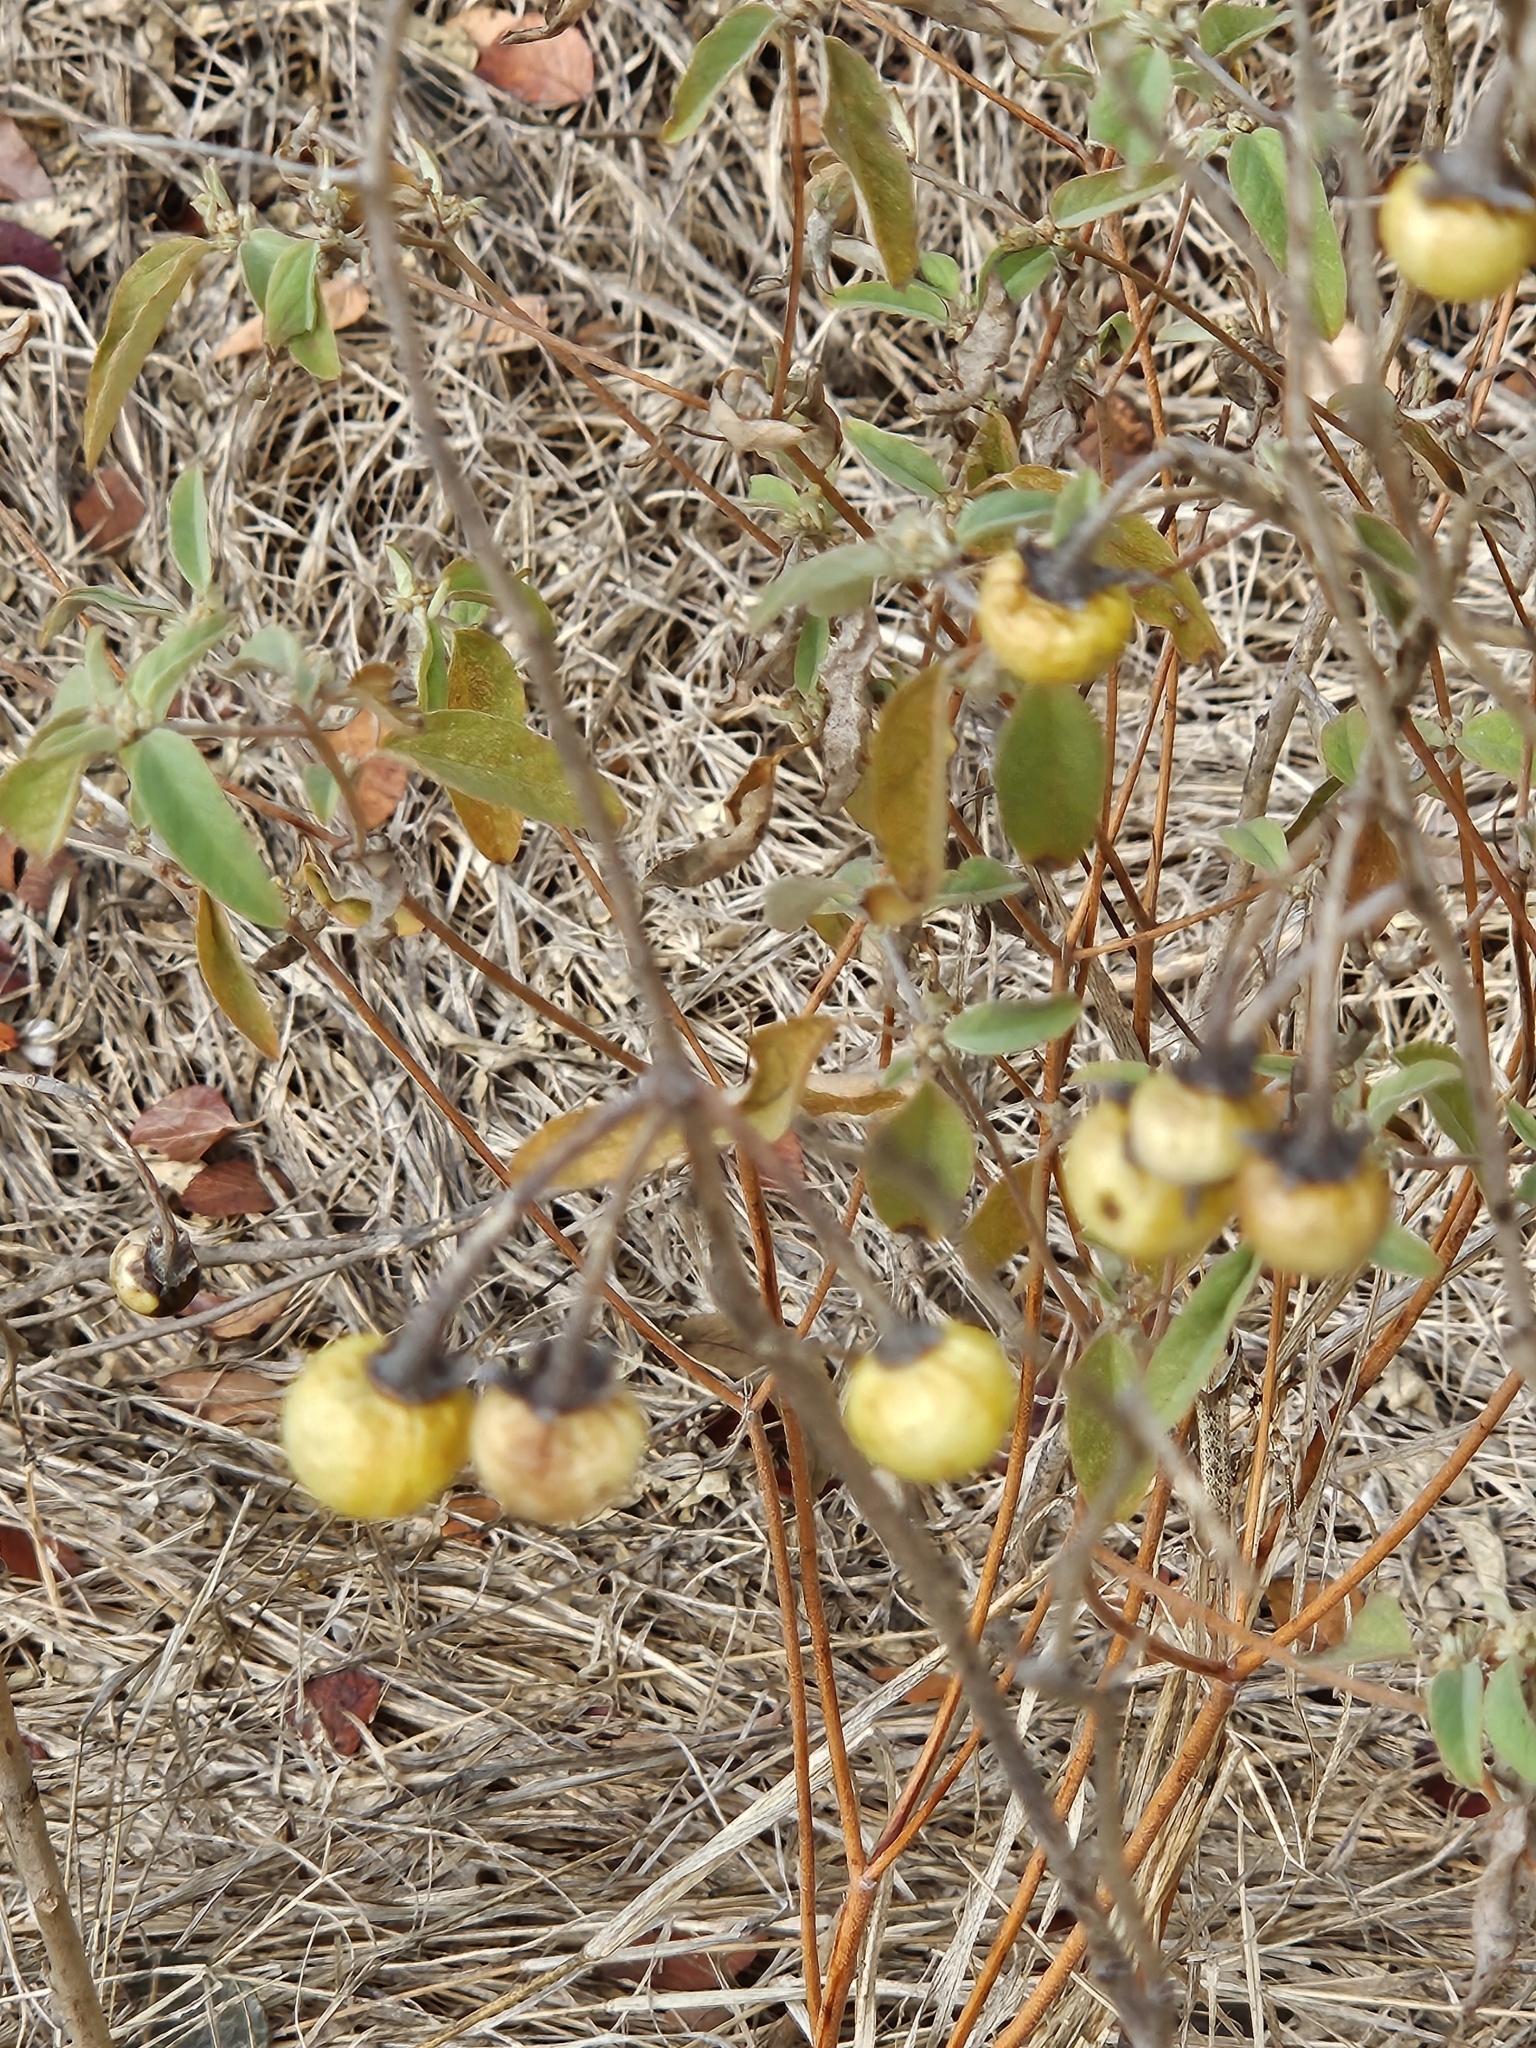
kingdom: Plantae
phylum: Tracheophyta
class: Magnoliopsida
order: Solanales
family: Solanaceae
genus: Solanum
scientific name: Solanum elaeagnifolium
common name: Silverleaf nightshade
